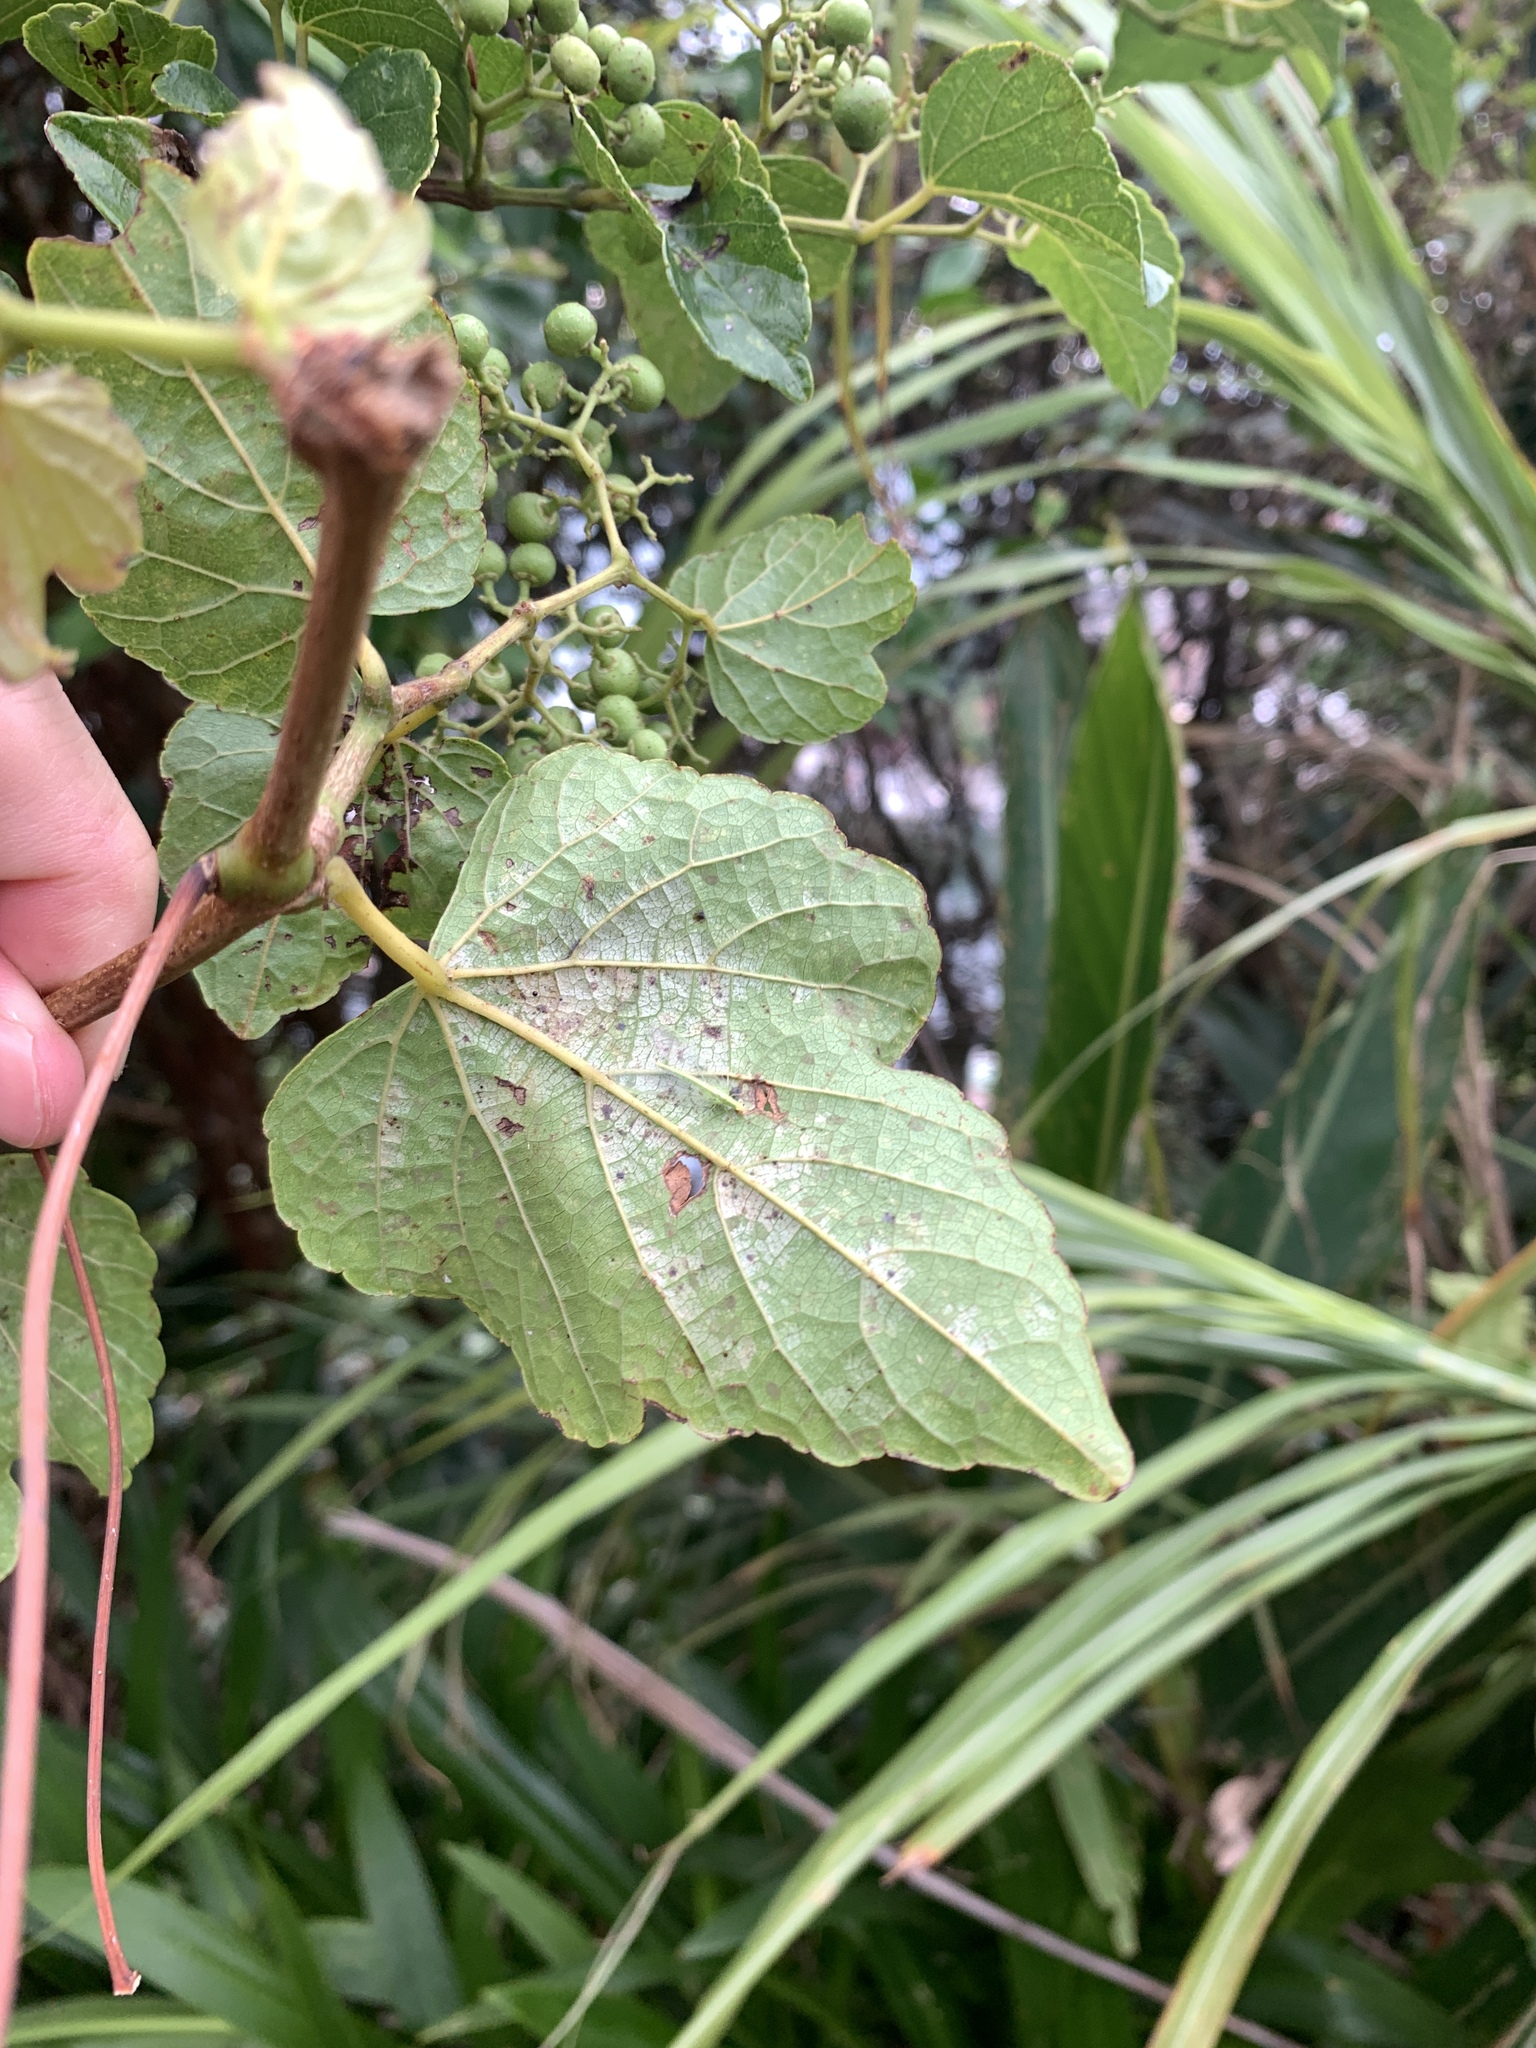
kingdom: Plantae
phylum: Tracheophyta
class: Magnoliopsida
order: Vitales
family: Vitaceae
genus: Ampelopsis
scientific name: Ampelopsis glandulosa
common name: Amur peppervine
